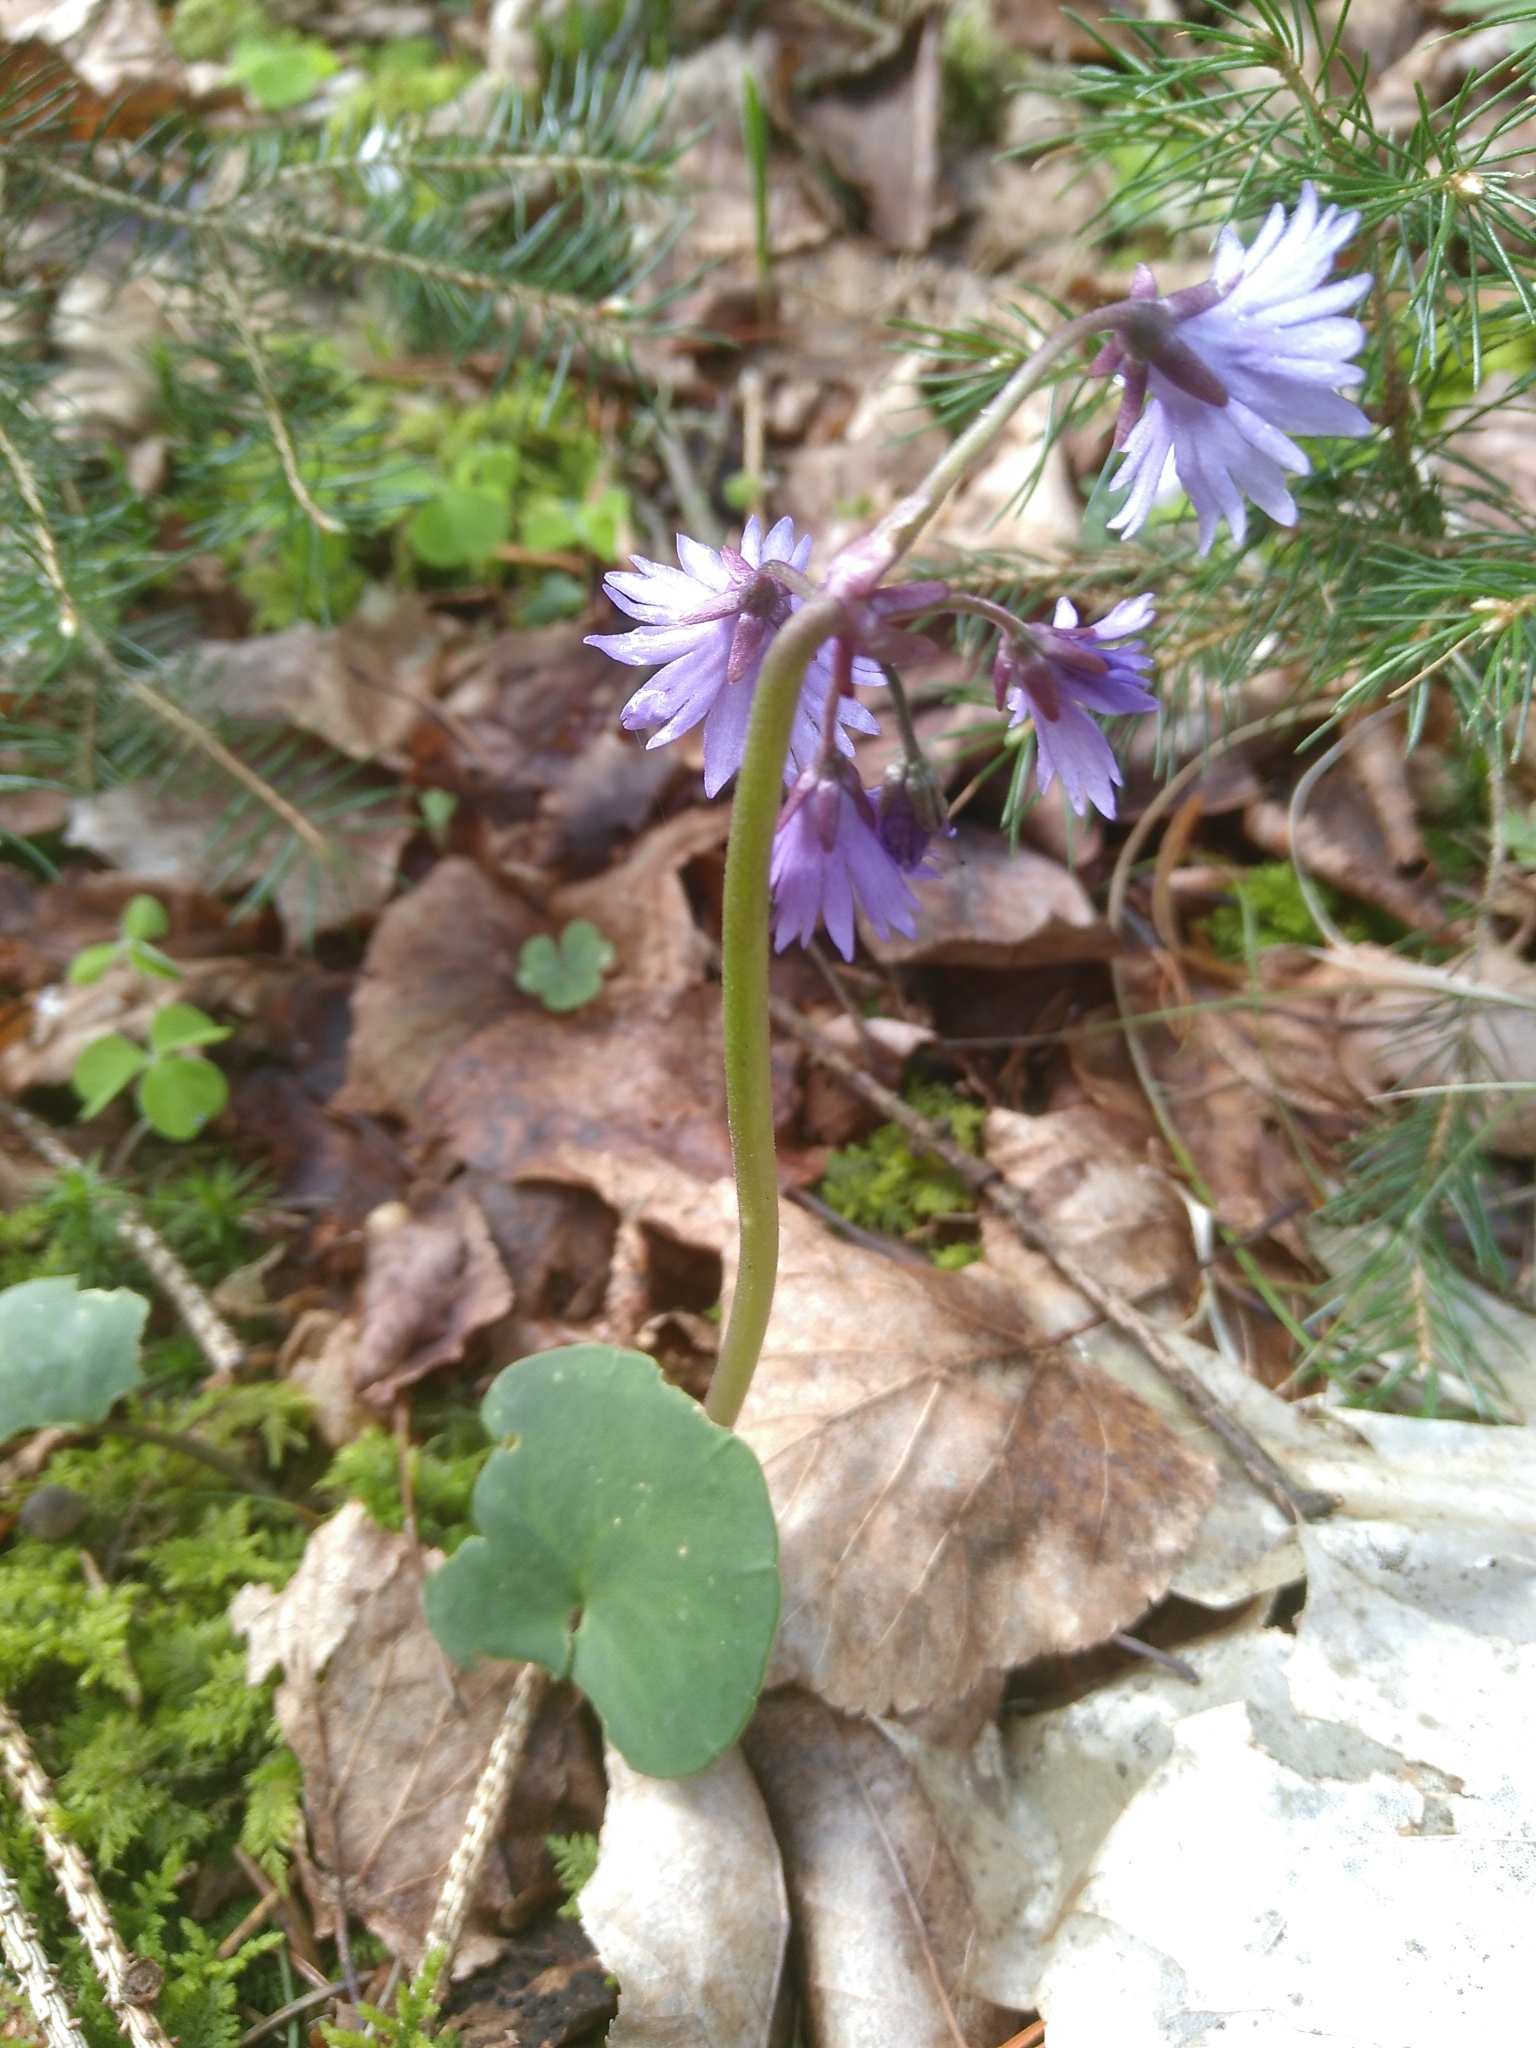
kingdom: Plantae
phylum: Tracheophyta
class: Magnoliopsida
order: Ericales
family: Primulaceae
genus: Soldanella
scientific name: Soldanella montana
